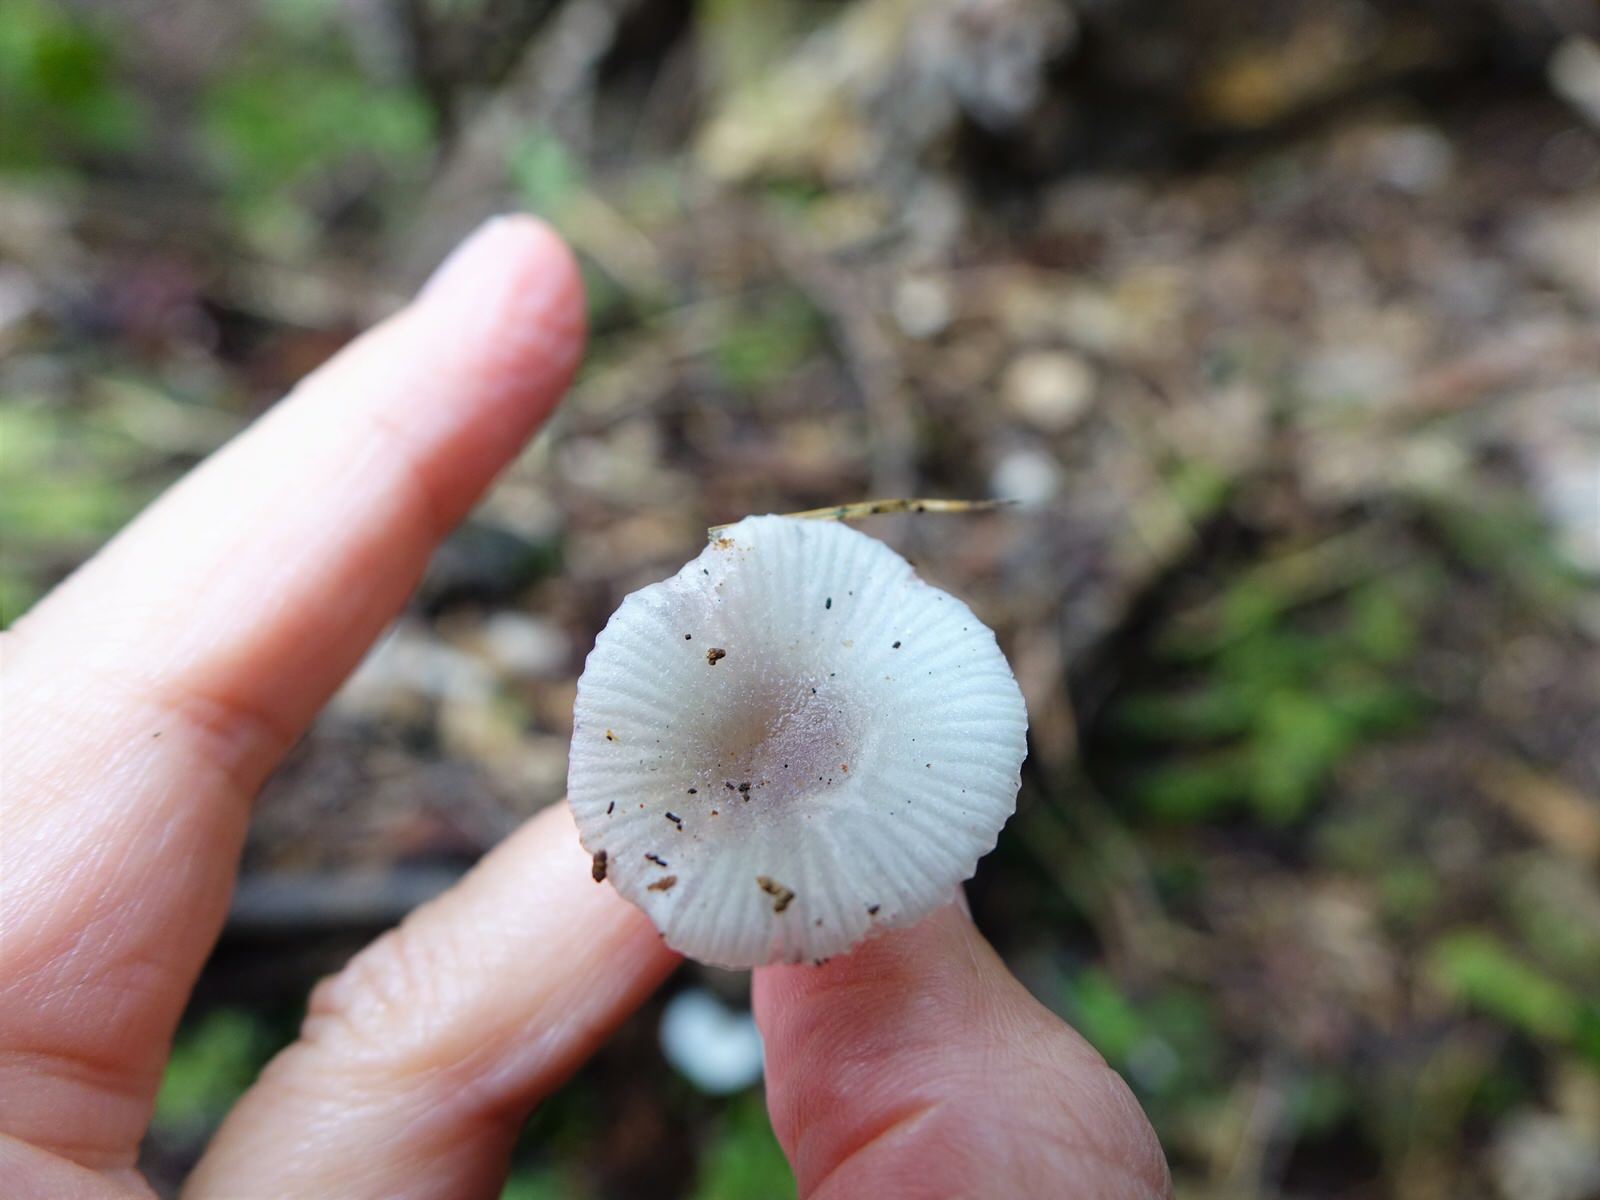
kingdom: Fungi
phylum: Basidiomycota
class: Agaricomycetes
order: Agaricales
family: Hygrophoraceae
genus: Gliophorus
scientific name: Gliophorus lilacipes
